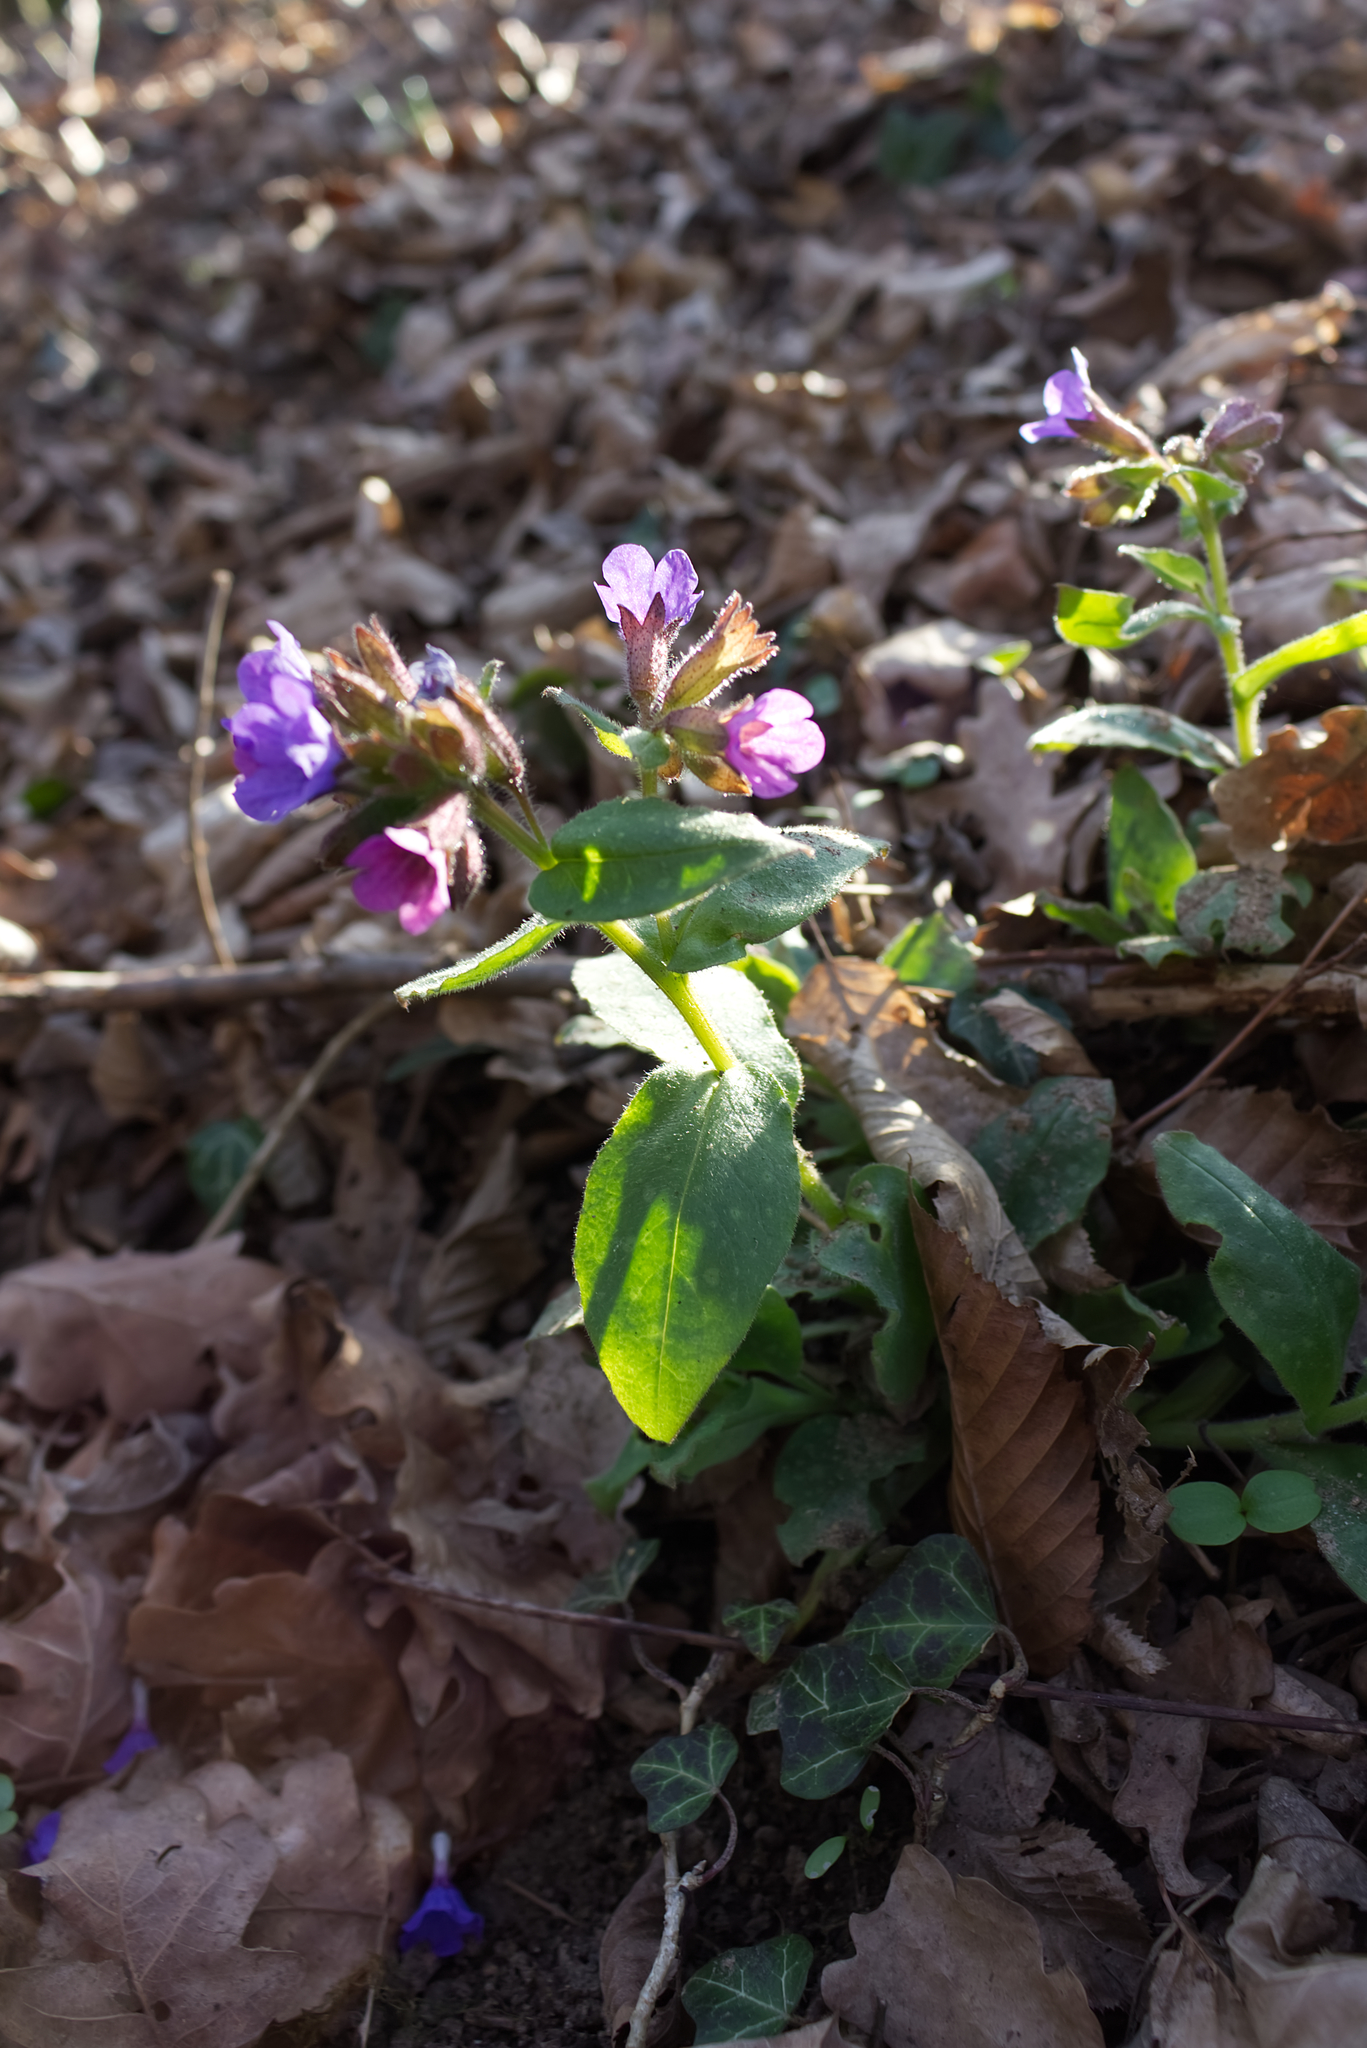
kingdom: Plantae
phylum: Tracheophyta
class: Magnoliopsida
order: Boraginales
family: Boraginaceae
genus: Pulmonaria
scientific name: Pulmonaria officinalis
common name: Lungwort
